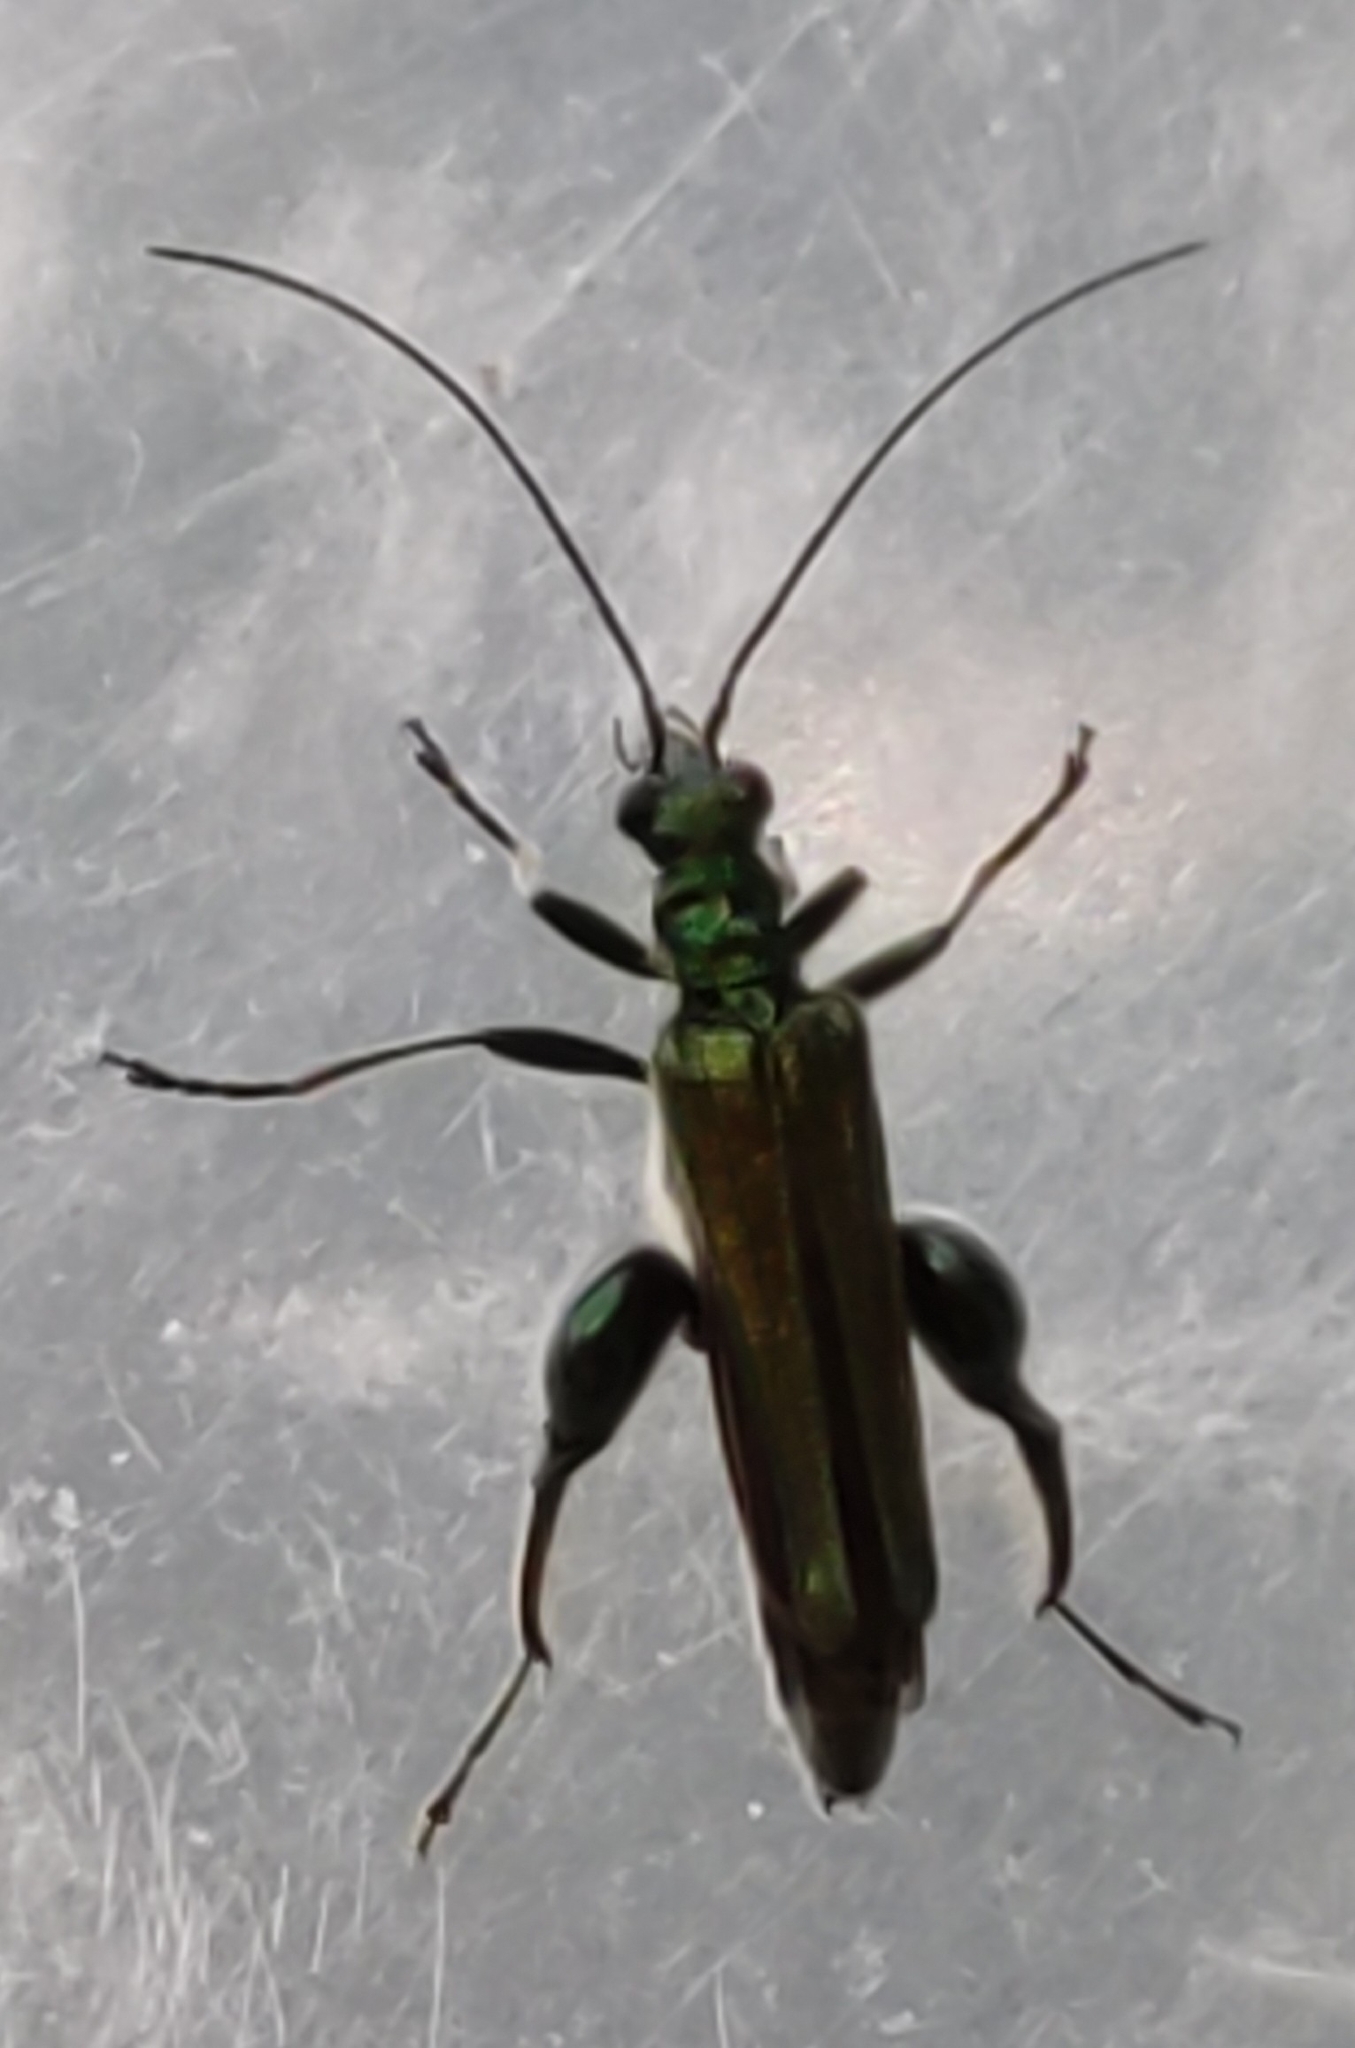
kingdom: Animalia
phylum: Arthropoda
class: Insecta
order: Coleoptera
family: Oedemeridae
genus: Oedemera
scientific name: Oedemera nobilis
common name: Swollen-thighed beetle
